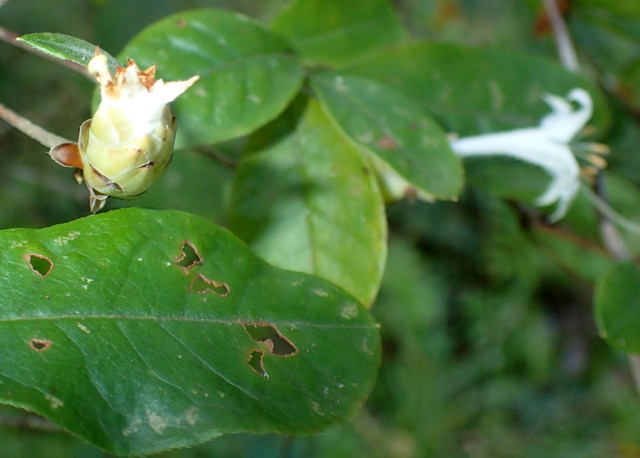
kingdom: Plantae
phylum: Tracheophyta
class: Magnoliopsida
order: Ericales
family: Ericaceae
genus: Rhododendron
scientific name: Rhododendron serrulatum
